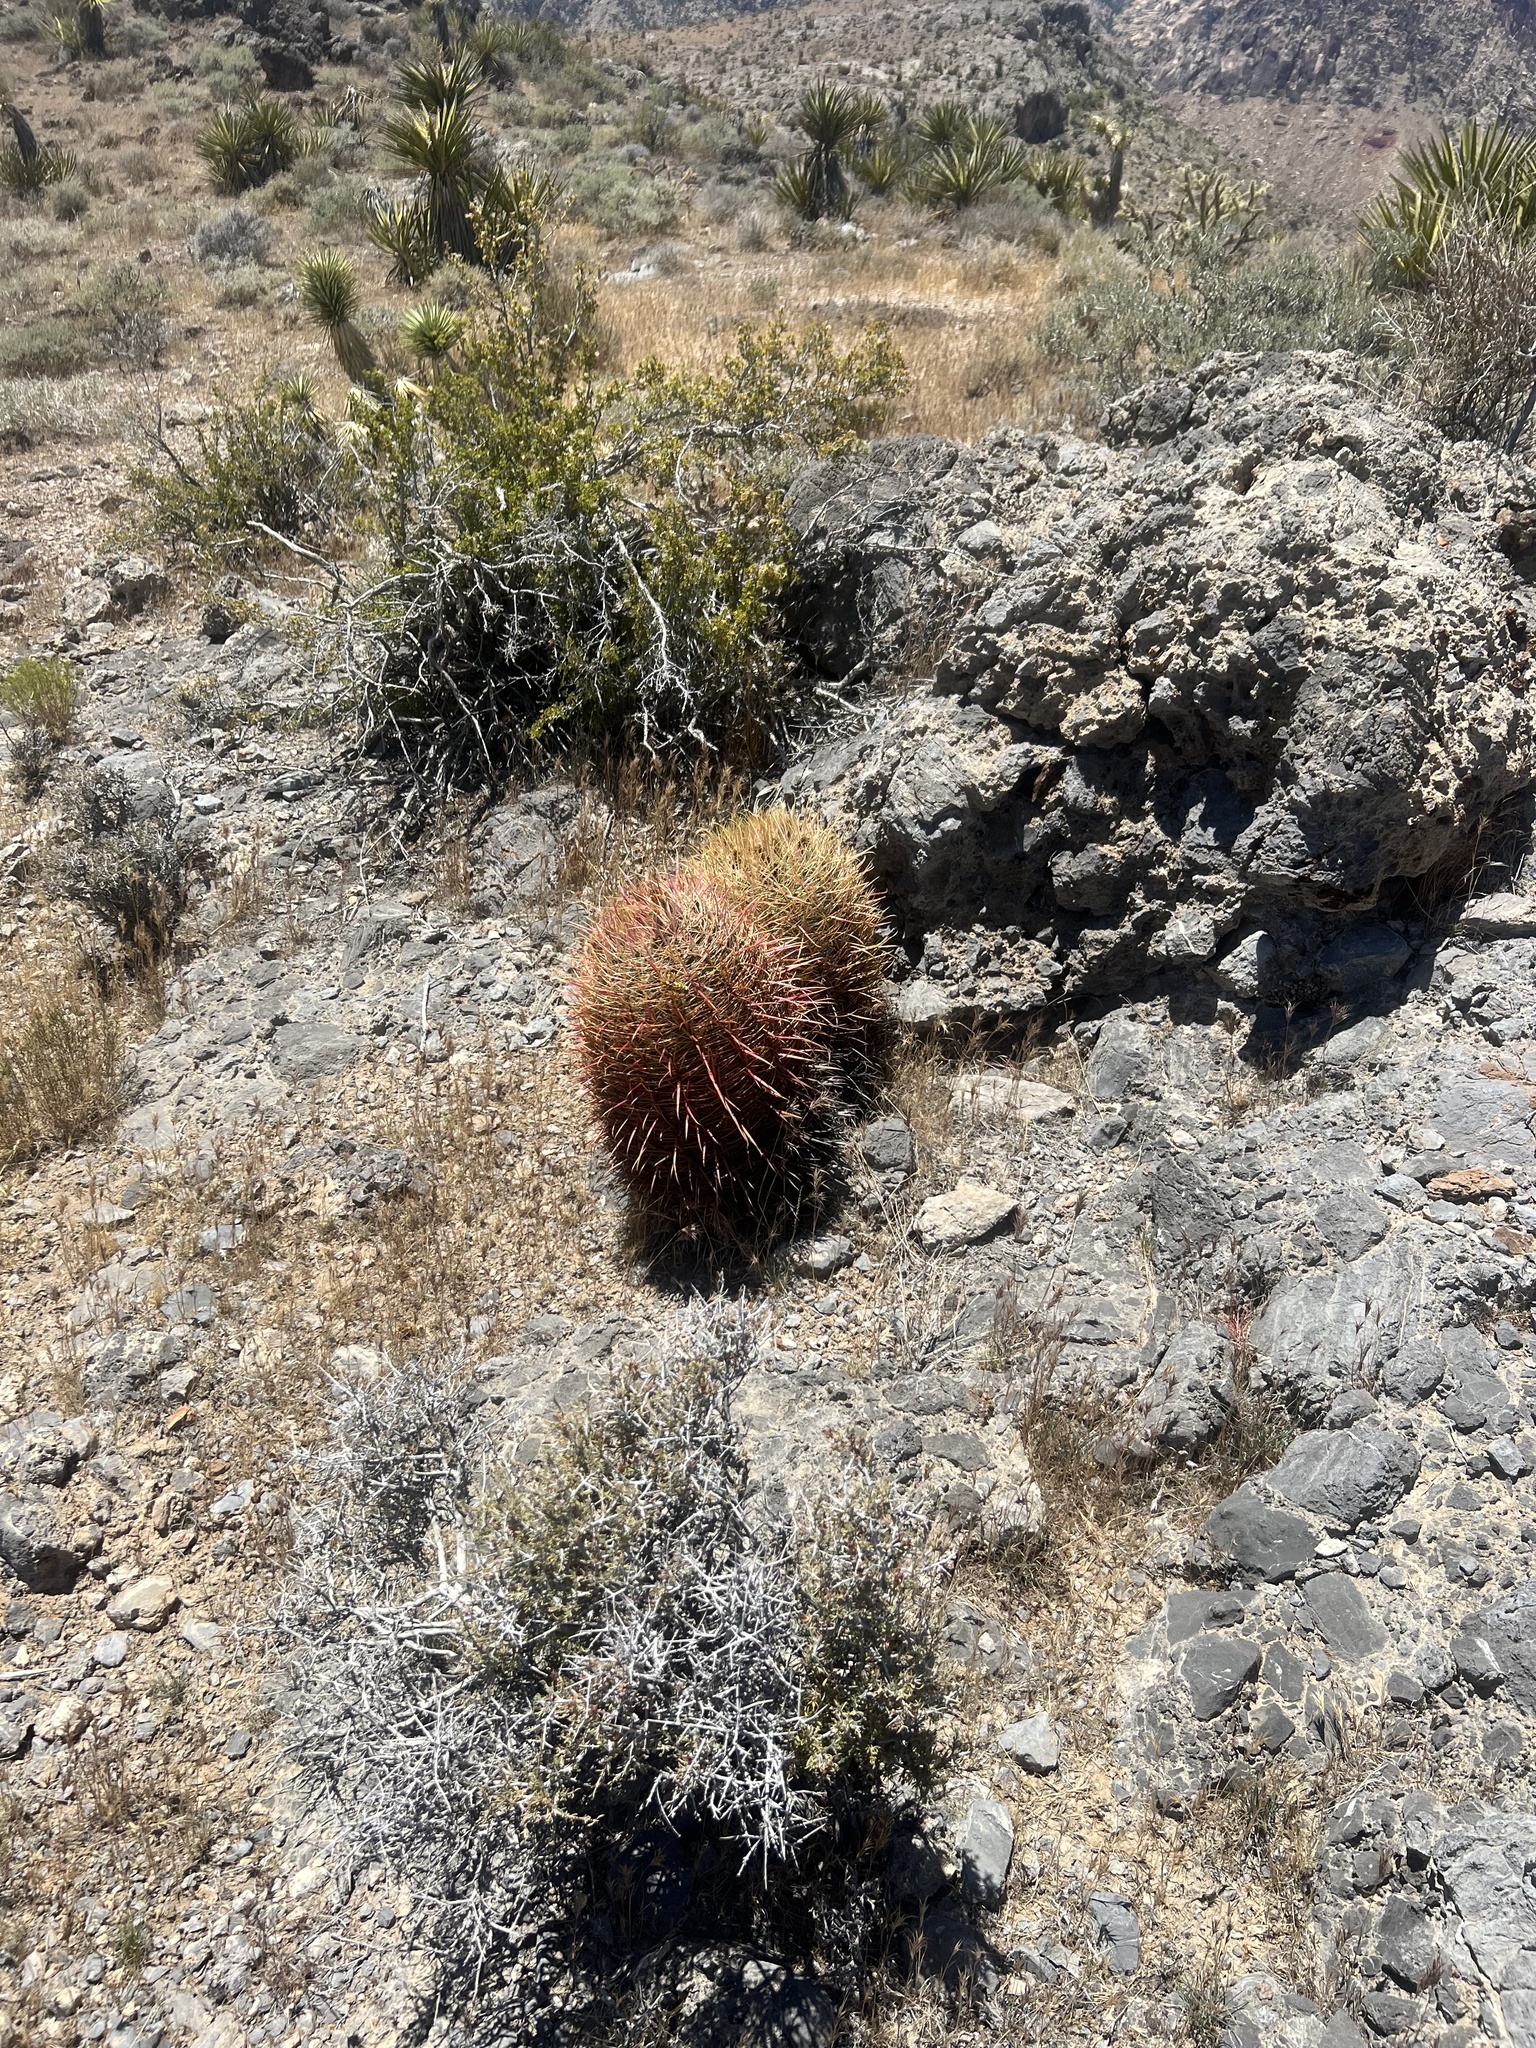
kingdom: Plantae
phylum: Tracheophyta
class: Magnoliopsida
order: Caryophyllales
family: Cactaceae
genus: Ferocactus
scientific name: Ferocactus cylindraceus
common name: California barrel cactus
